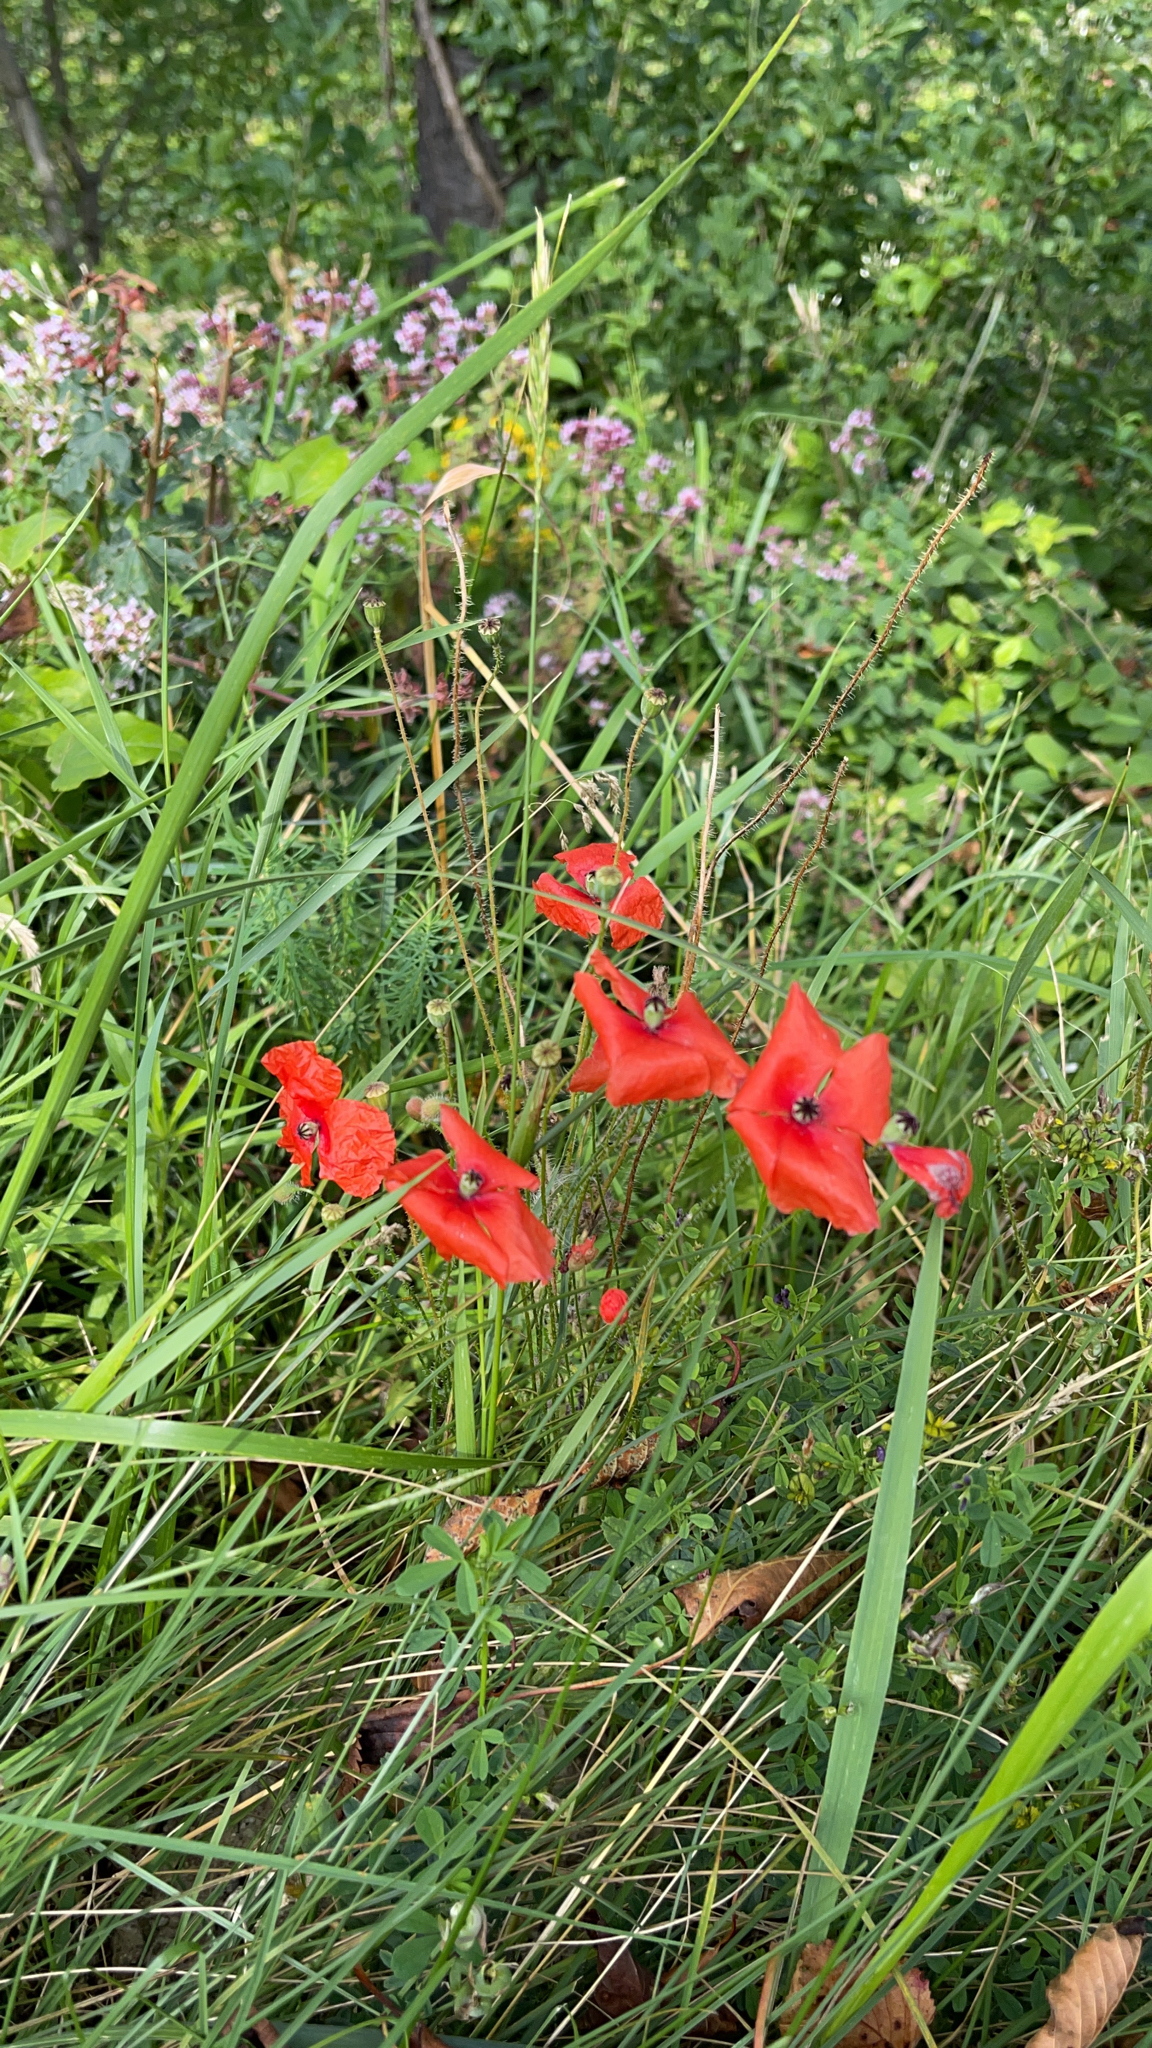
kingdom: Plantae
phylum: Tracheophyta
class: Magnoliopsida
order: Ranunculales
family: Papaveraceae
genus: Papaver
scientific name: Papaver rhoeas
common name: Corn poppy
